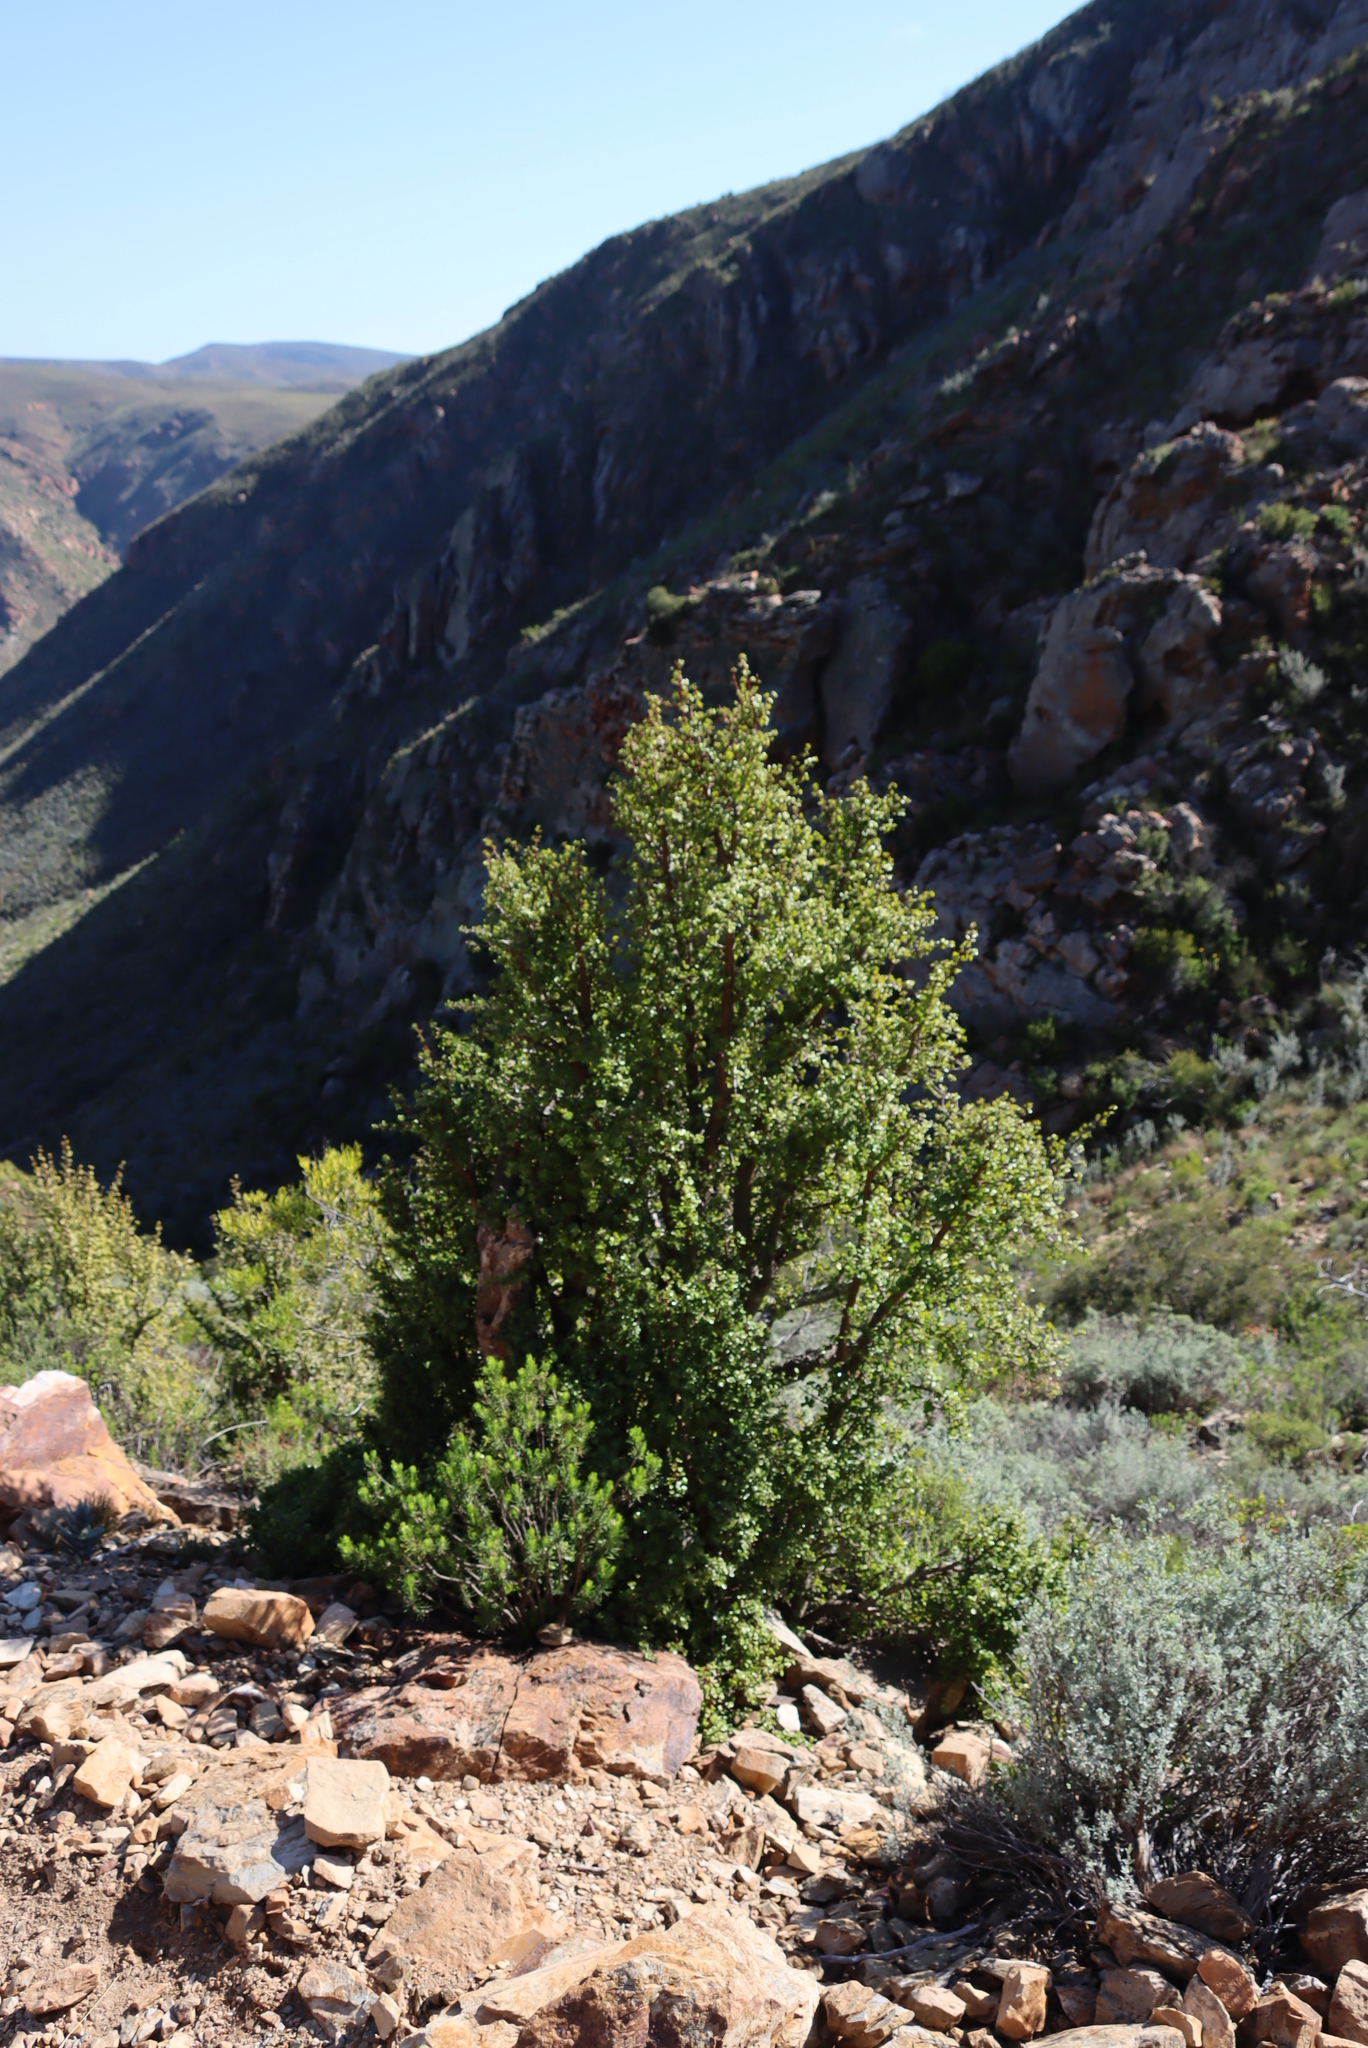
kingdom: Plantae
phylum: Tracheophyta
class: Magnoliopsida
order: Caryophyllales
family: Didiereaceae
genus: Portulacaria
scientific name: Portulacaria afra
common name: Elephant-bush
